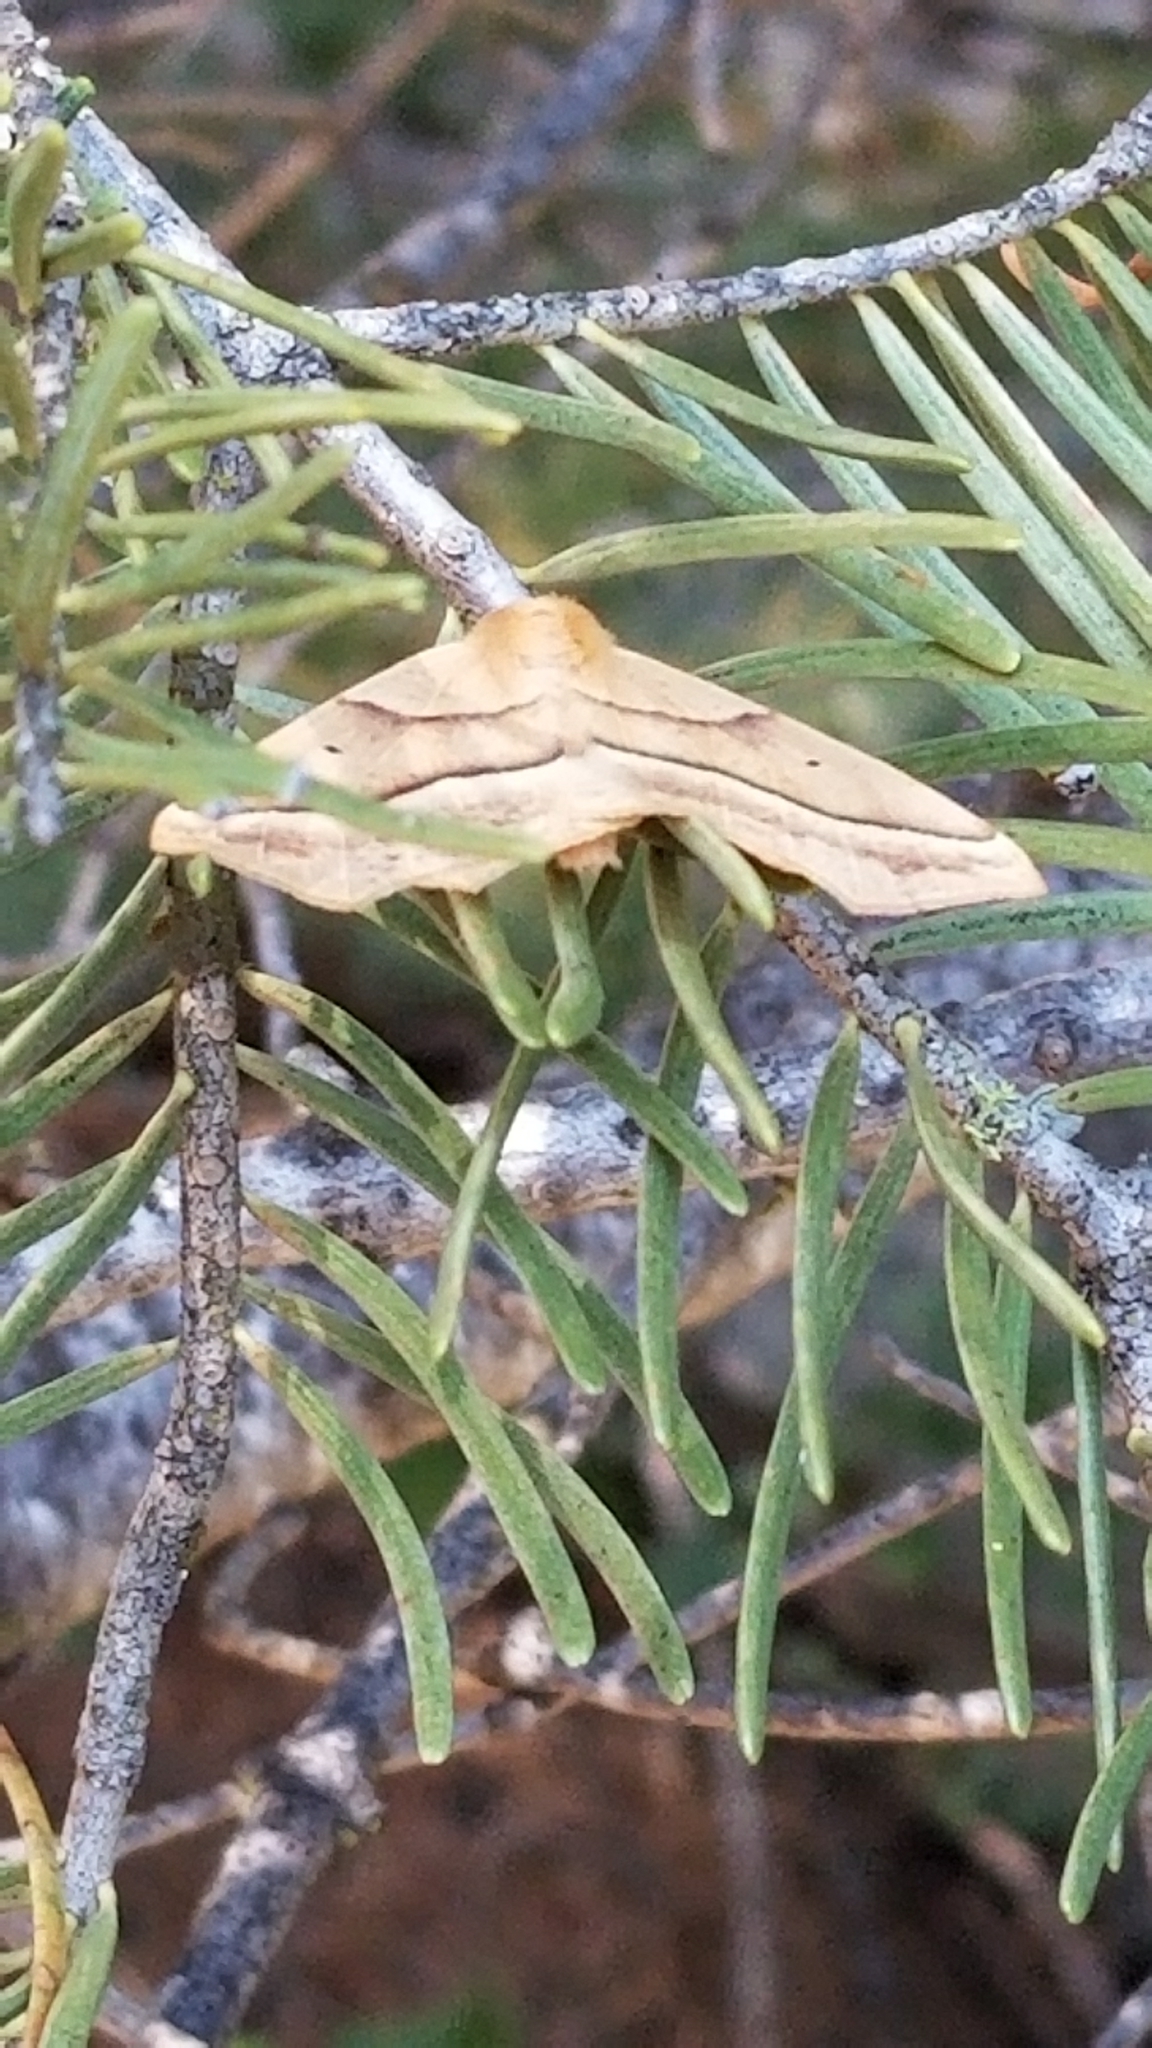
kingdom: Animalia
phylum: Arthropoda
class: Insecta
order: Lepidoptera
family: Geometridae
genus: Synaxis
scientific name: Synaxis jubararia
